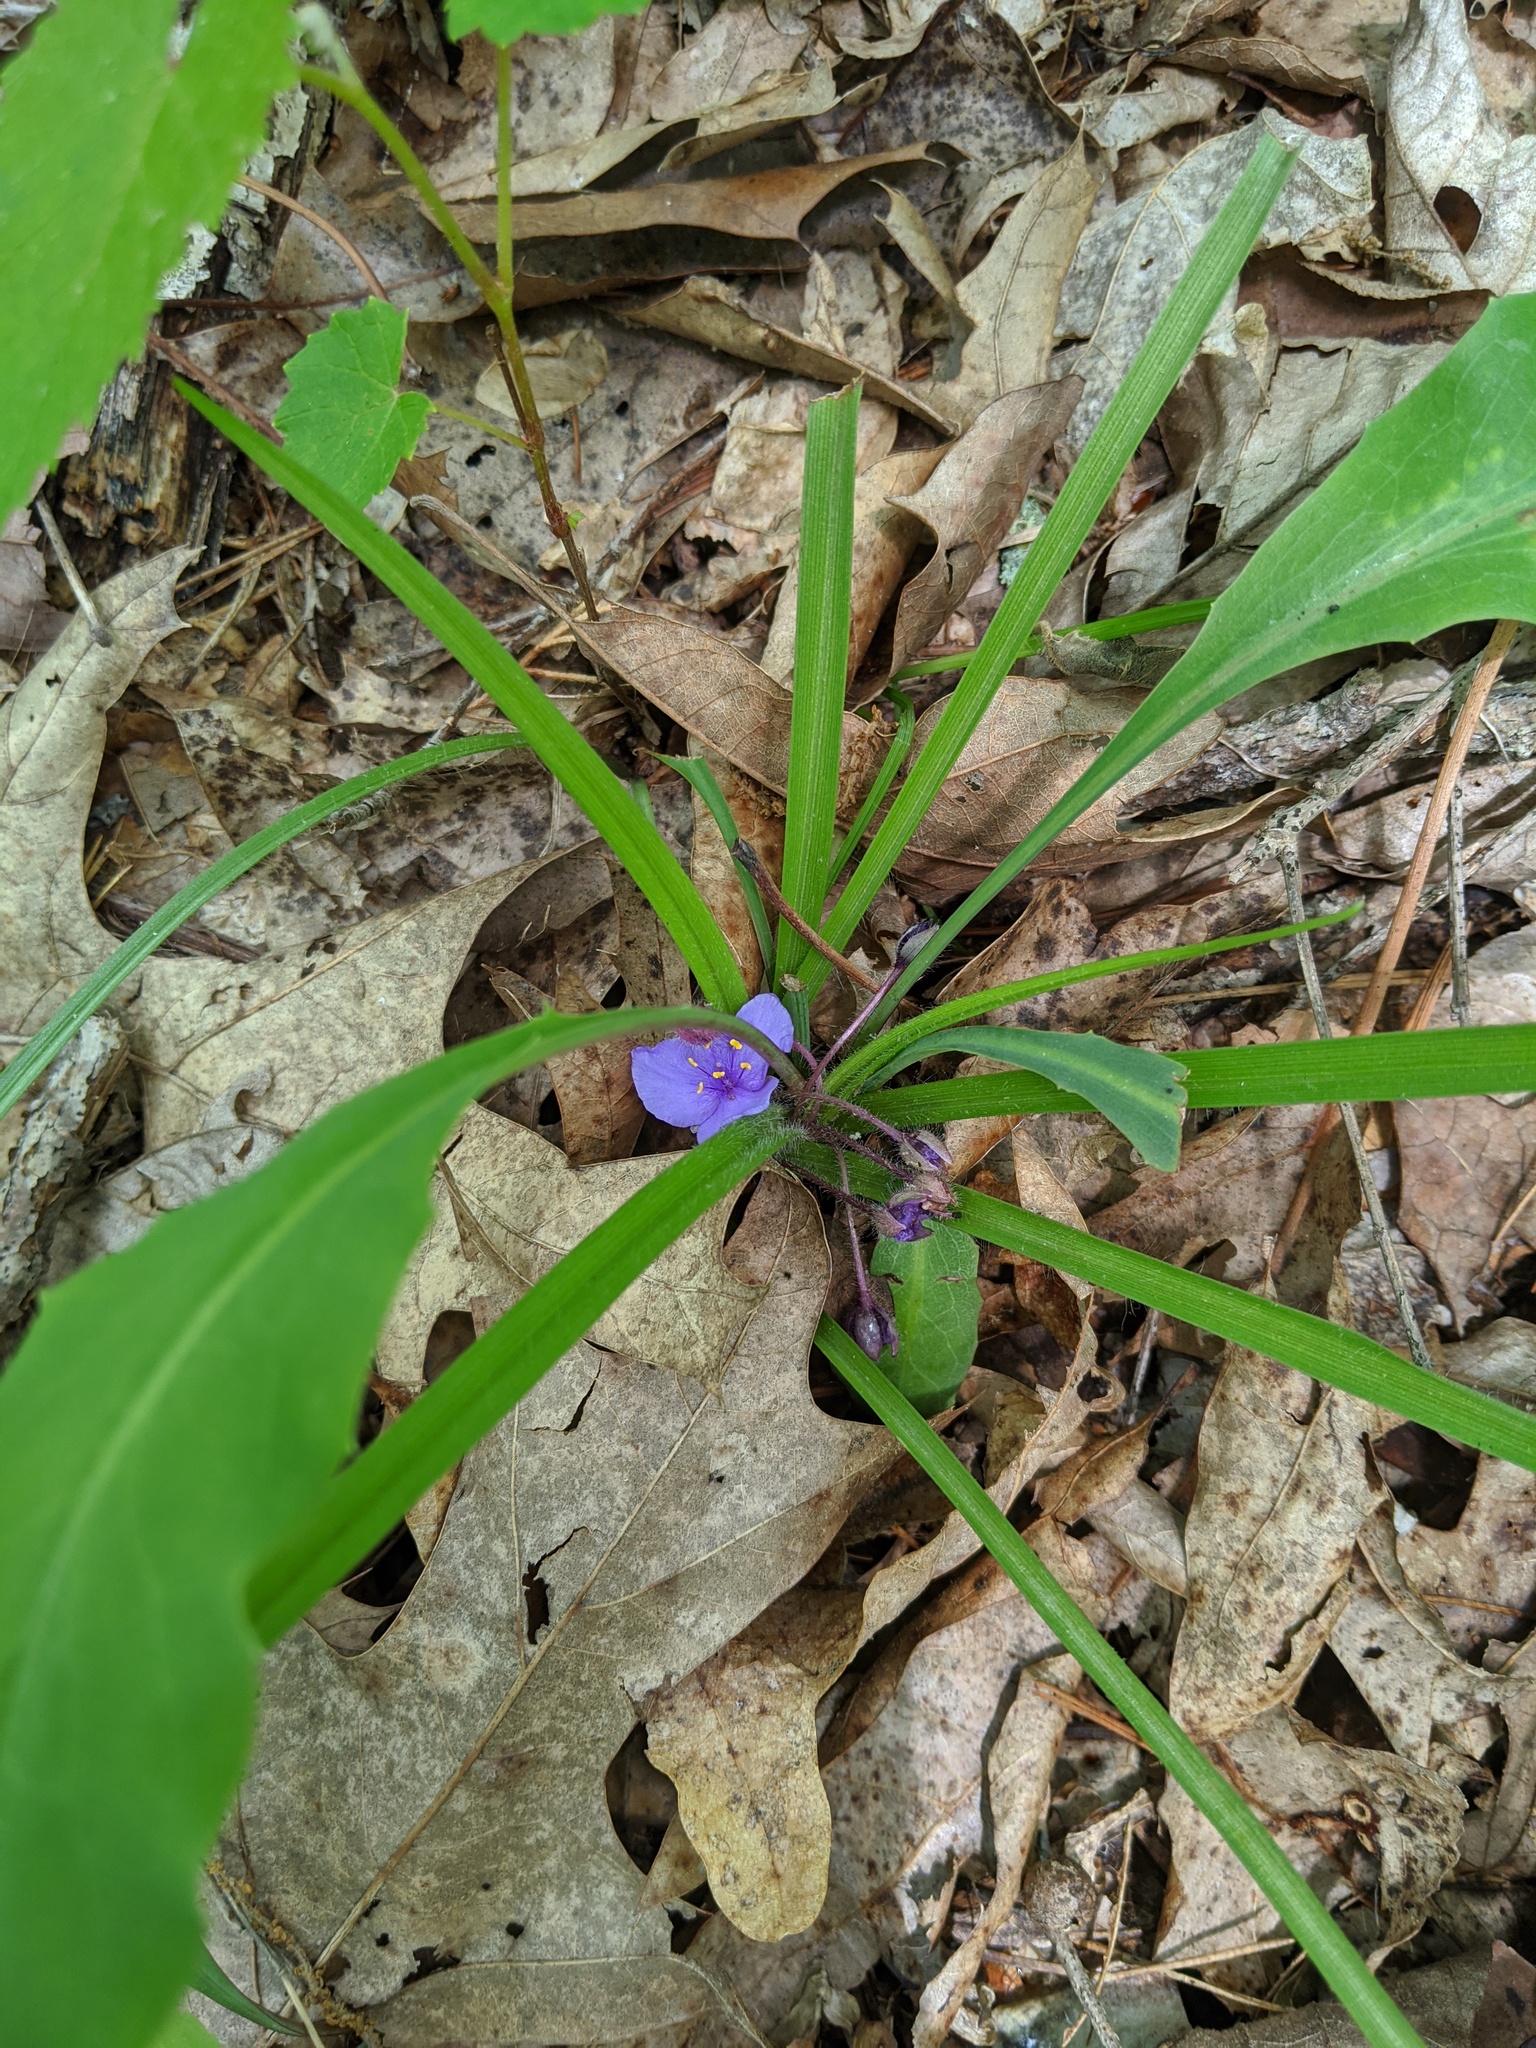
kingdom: Plantae
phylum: Tracheophyta
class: Liliopsida
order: Commelinales
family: Commelinaceae
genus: Tradescantia
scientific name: Tradescantia longipes
